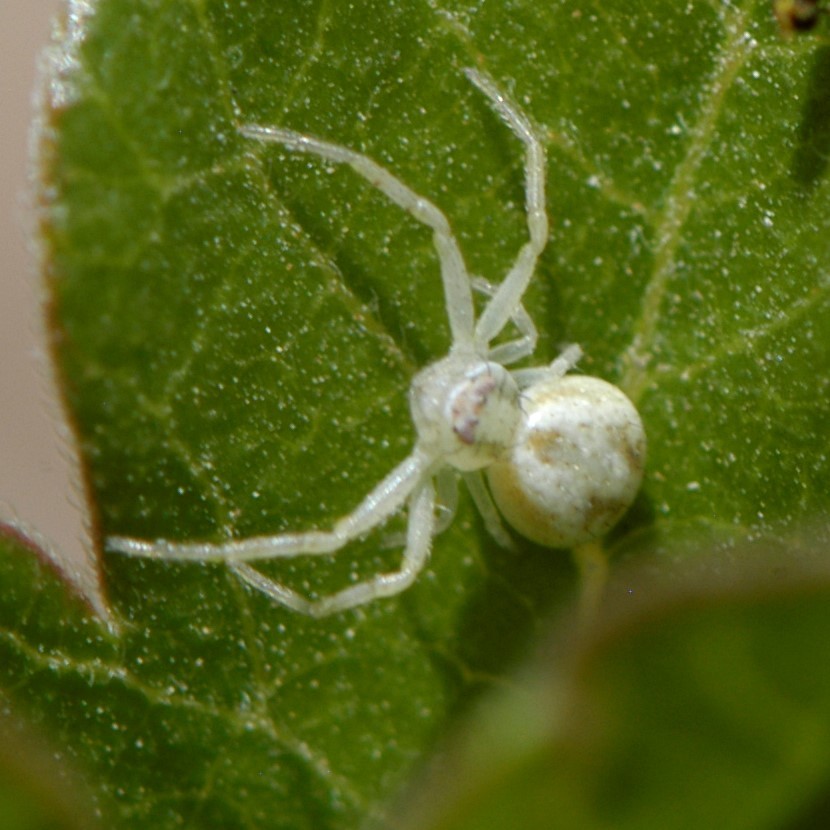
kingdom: Animalia
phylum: Arthropoda
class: Arachnida
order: Araneae
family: Thomisidae
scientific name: Thomisidae
